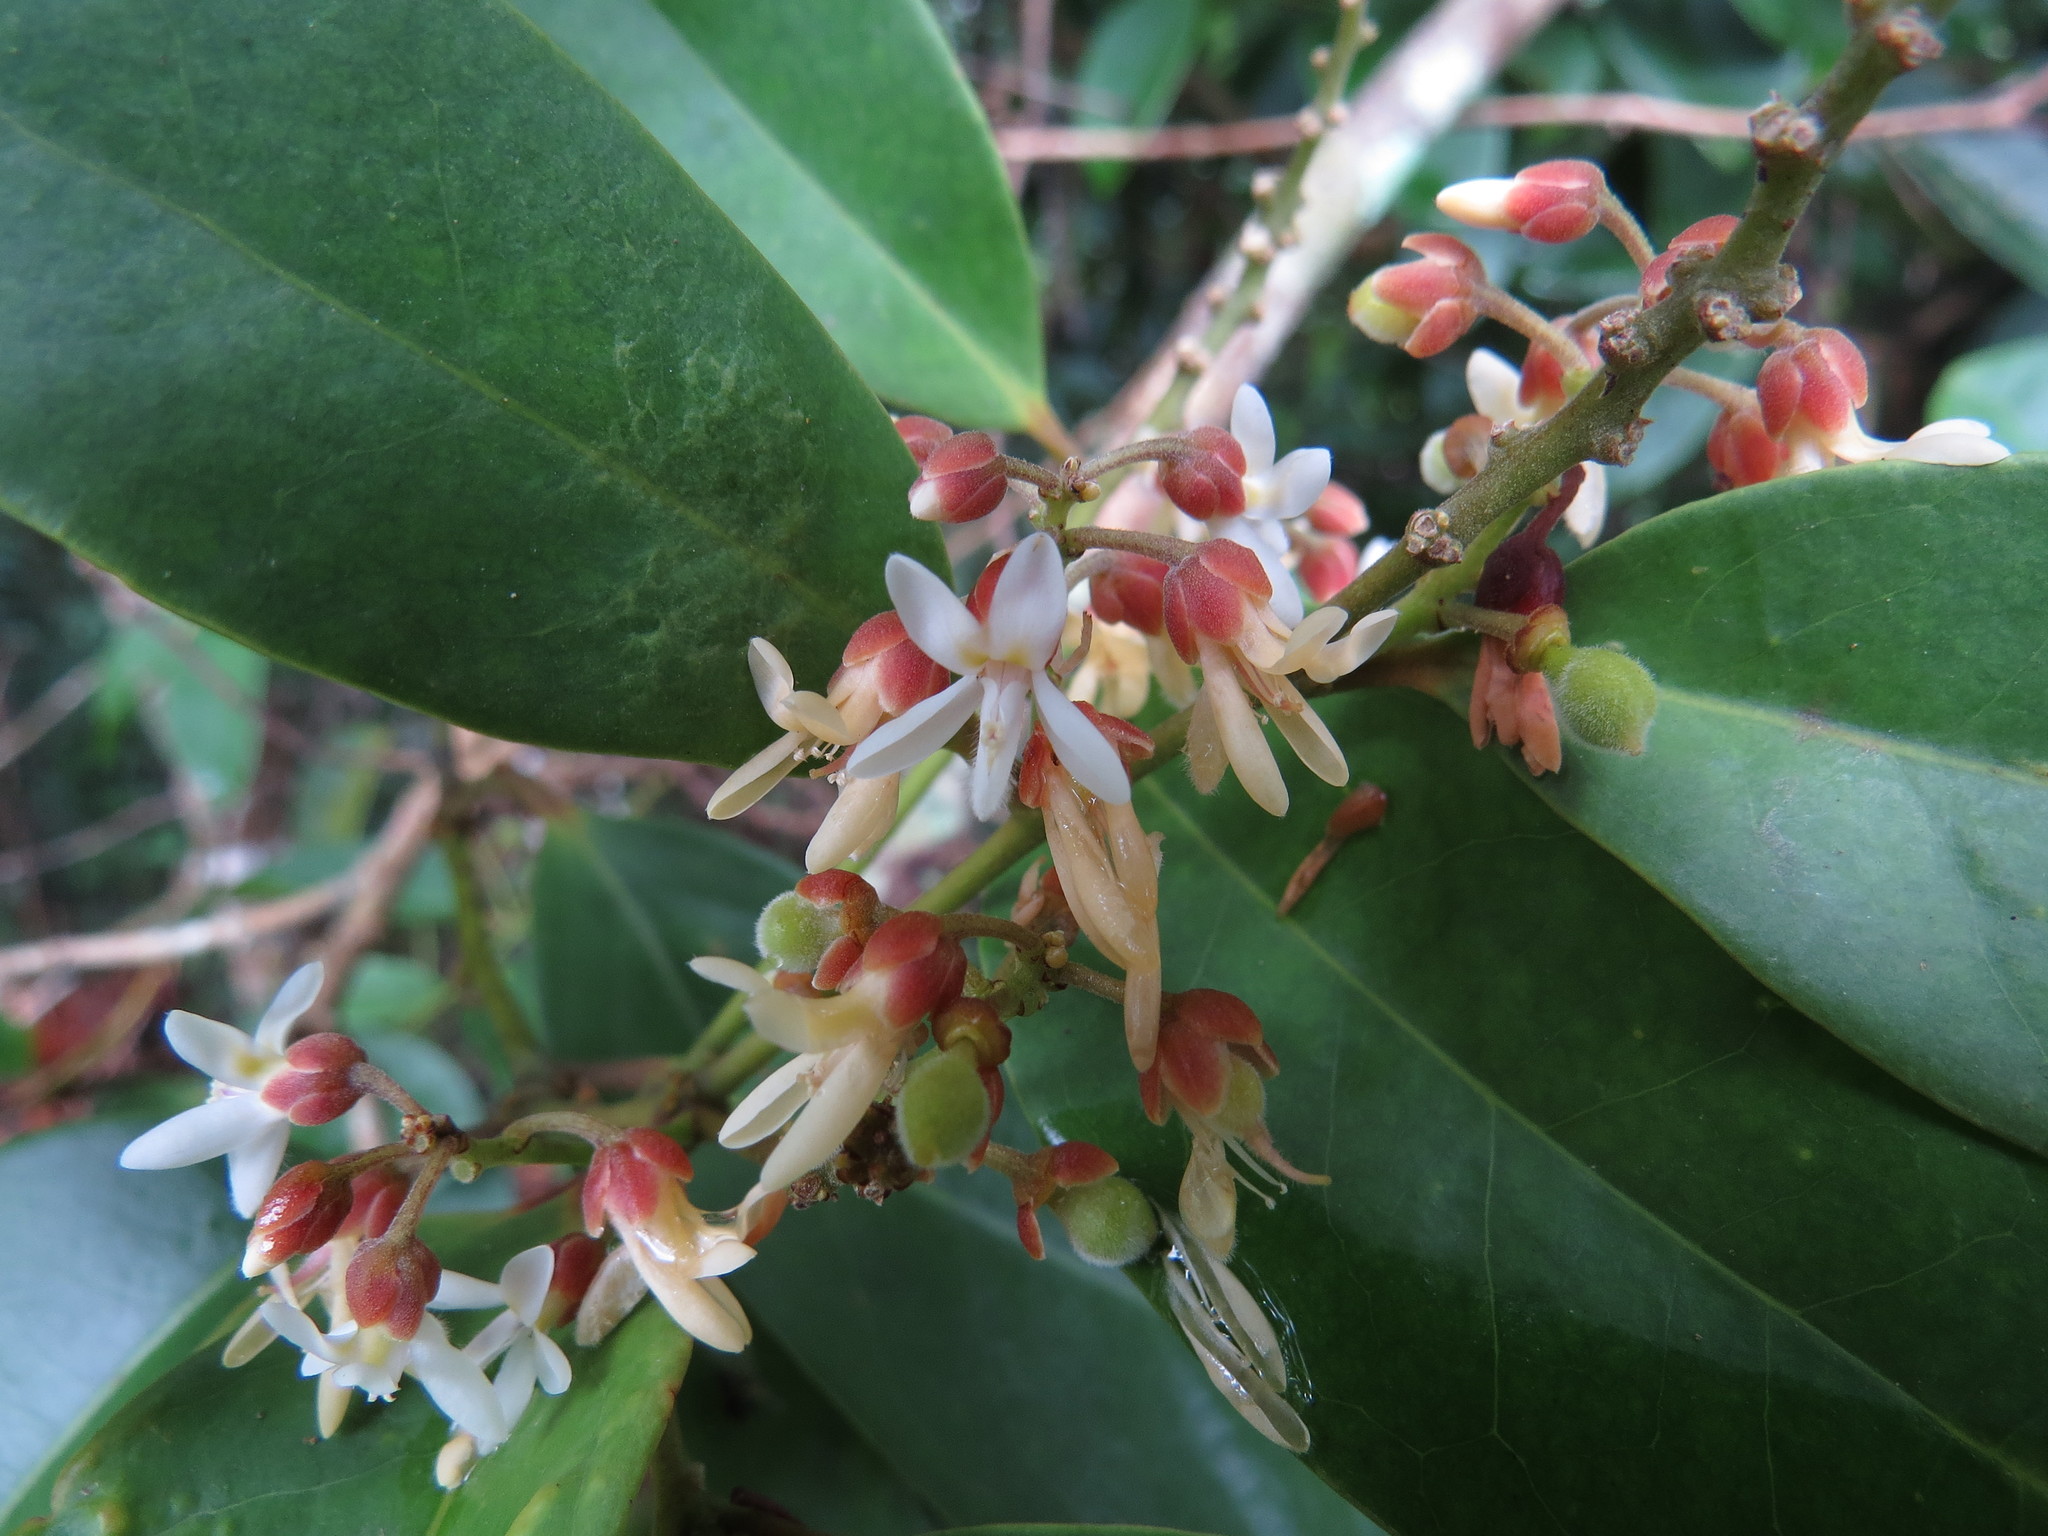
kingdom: Plantae
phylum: Tracheophyta
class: Magnoliopsida
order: Fabales
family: Polygalaceae
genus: Xanthophyllum
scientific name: Xanthophyllum octandrum
